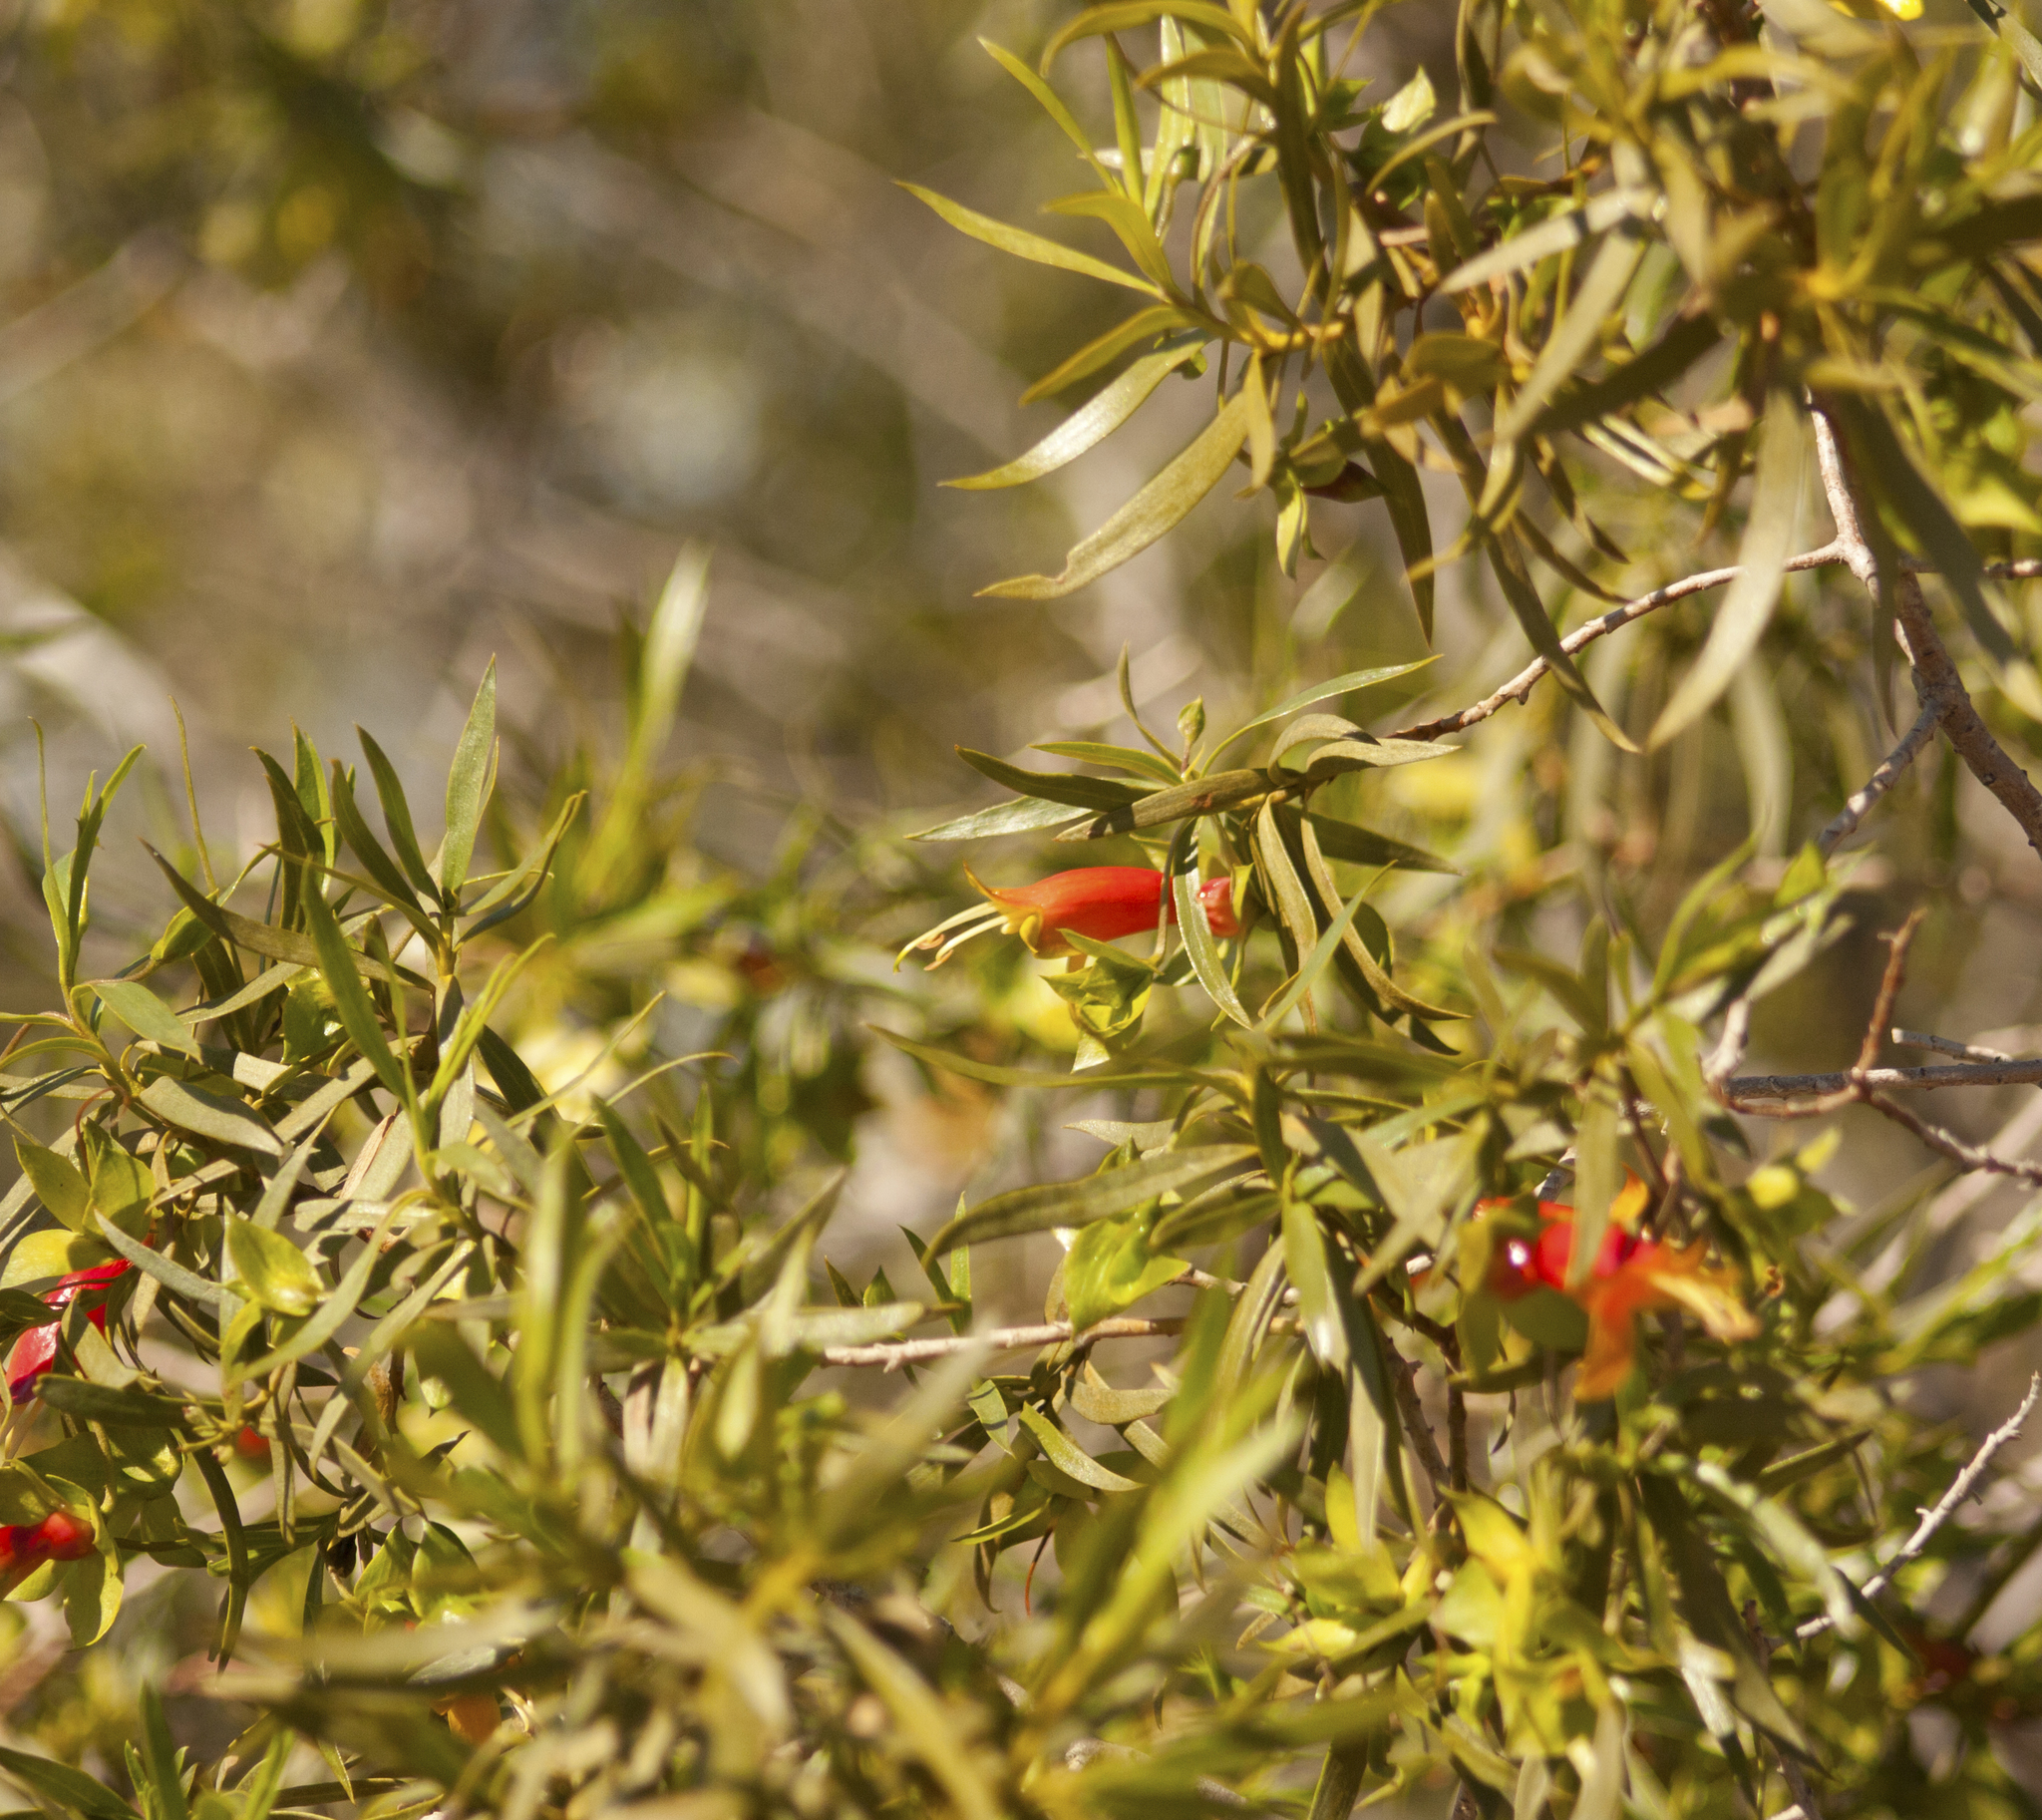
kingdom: Plantae
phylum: Tracheophyta
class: Magnoliopsida
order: Lamiales
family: Scrophulariaceae
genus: Eremophila
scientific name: Eremophila duttonii
